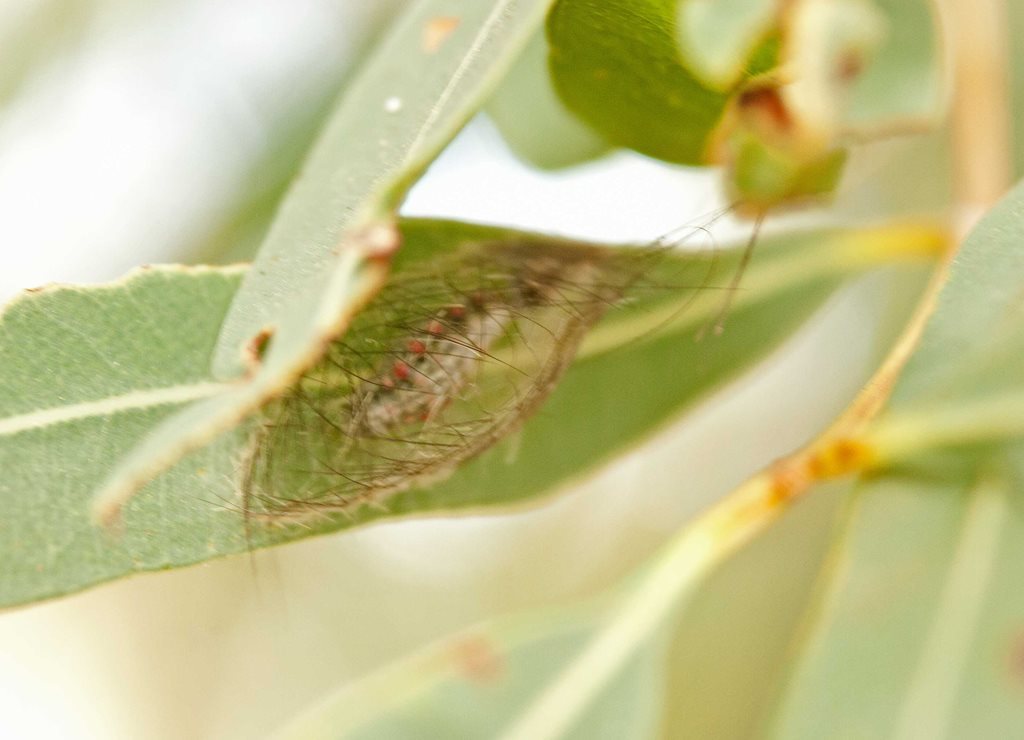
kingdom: Animalia
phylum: Arthropoda
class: Insecta
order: Lepidoptera
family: Erebidae
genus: Anestia
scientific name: Anestia semiochrea
